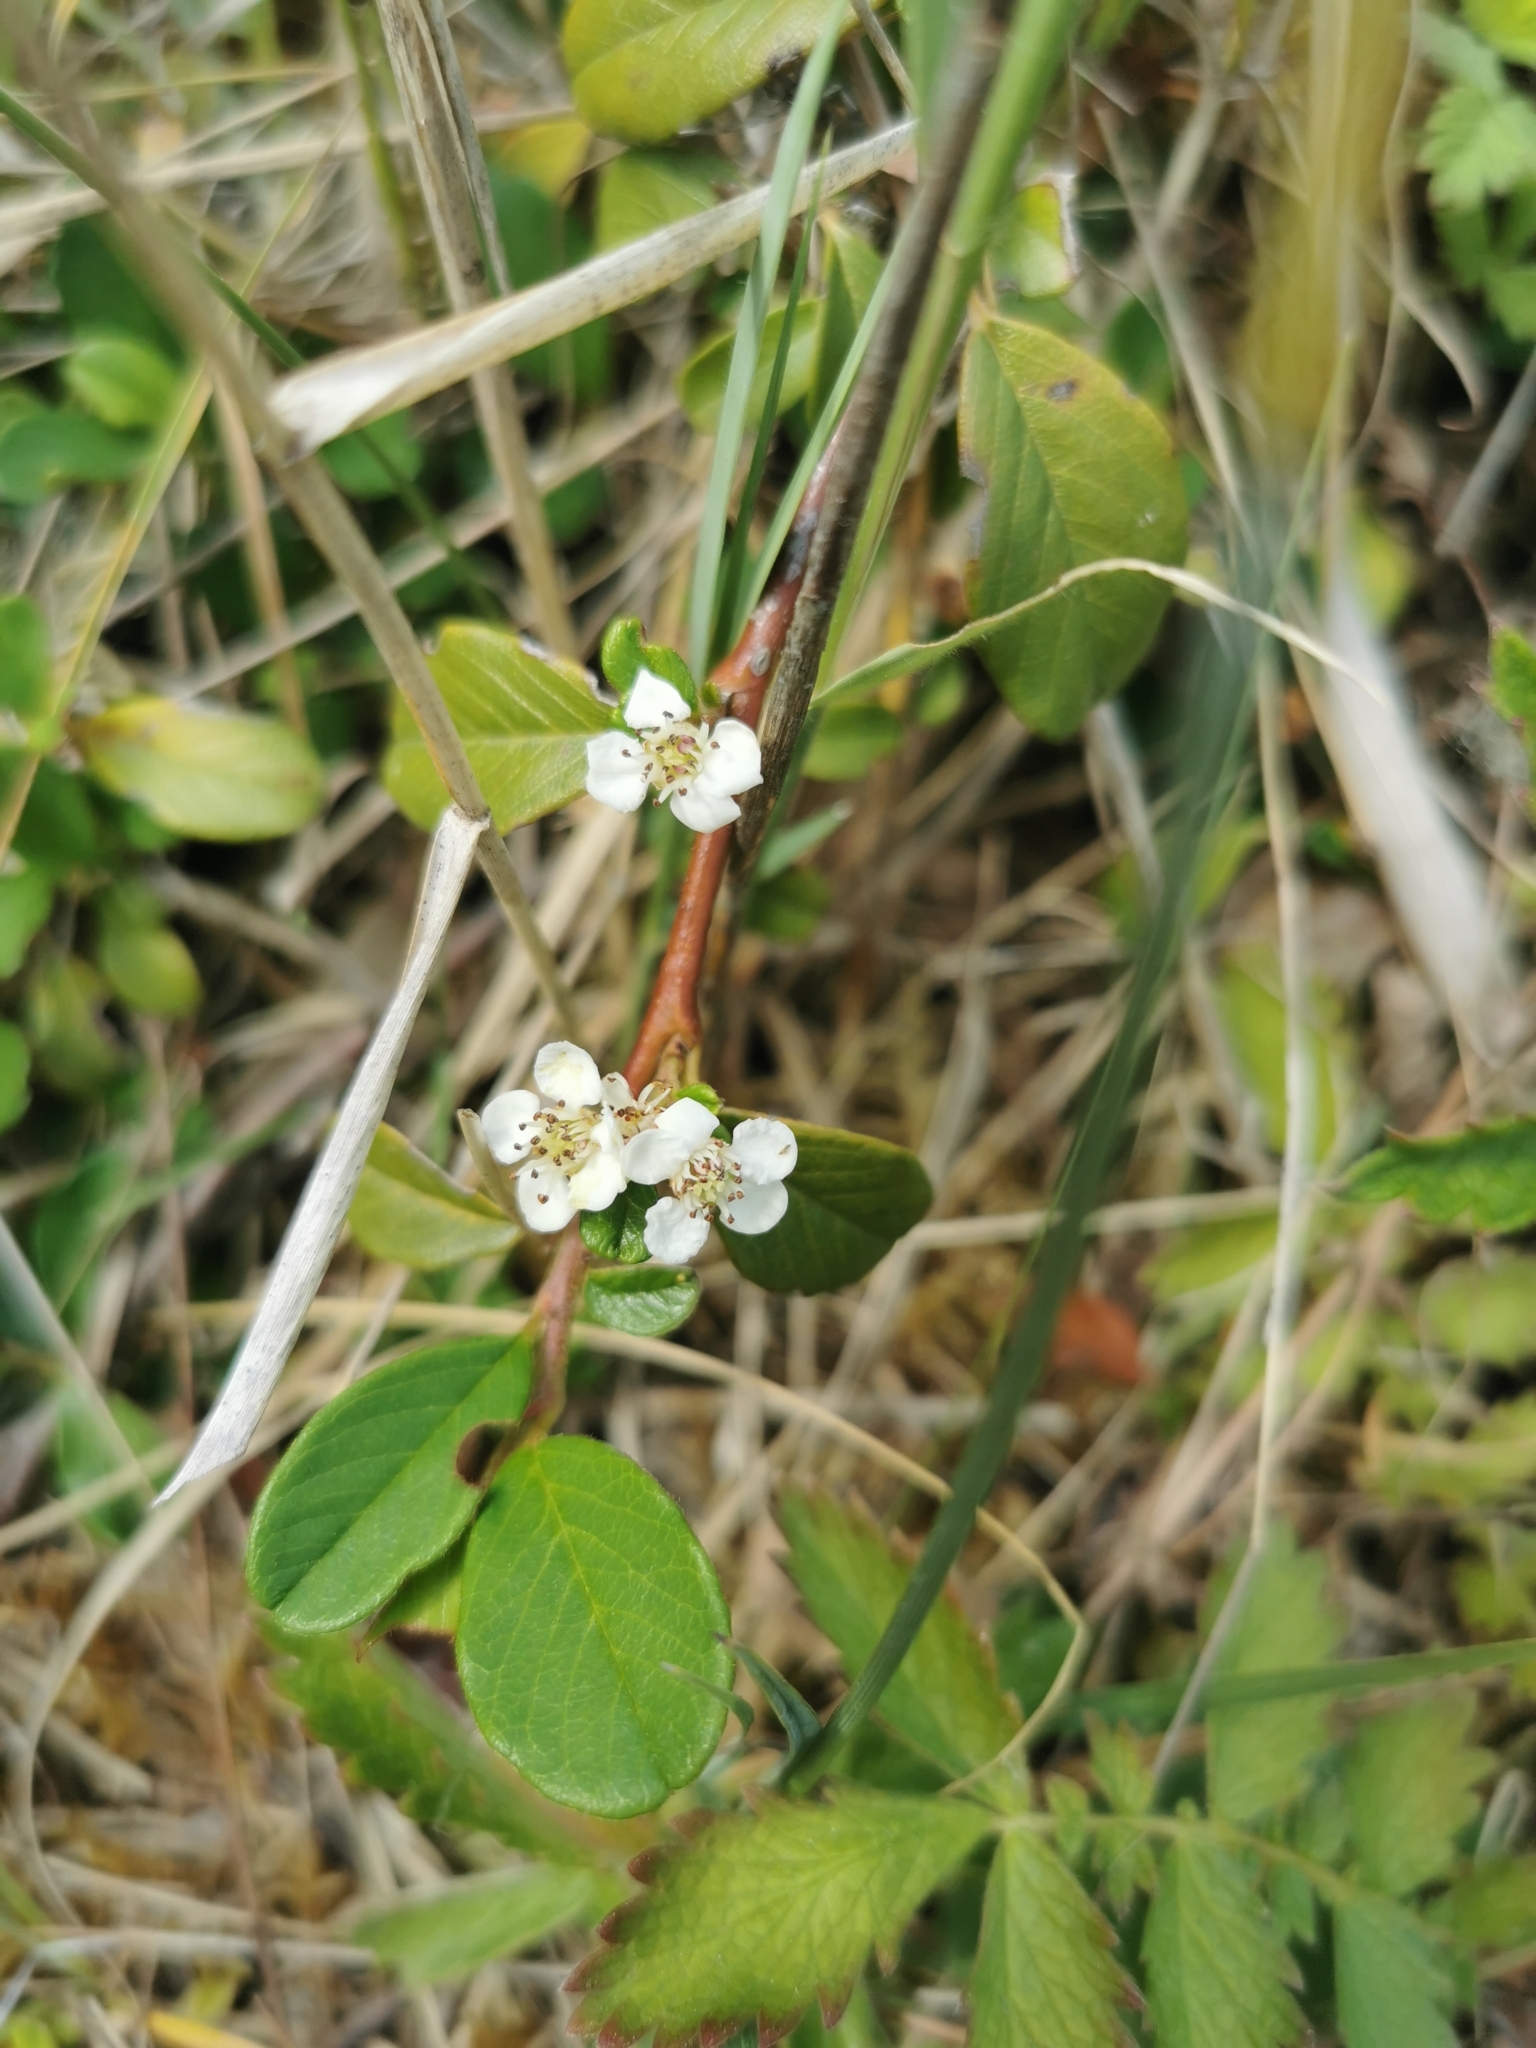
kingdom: Plantae
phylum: Tracheophyta
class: Magnoliopsida
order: Rosales
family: Rosaceae
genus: Cotoneaster
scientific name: Cotoneaster dammeri
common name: Bearberry cotoneaster
